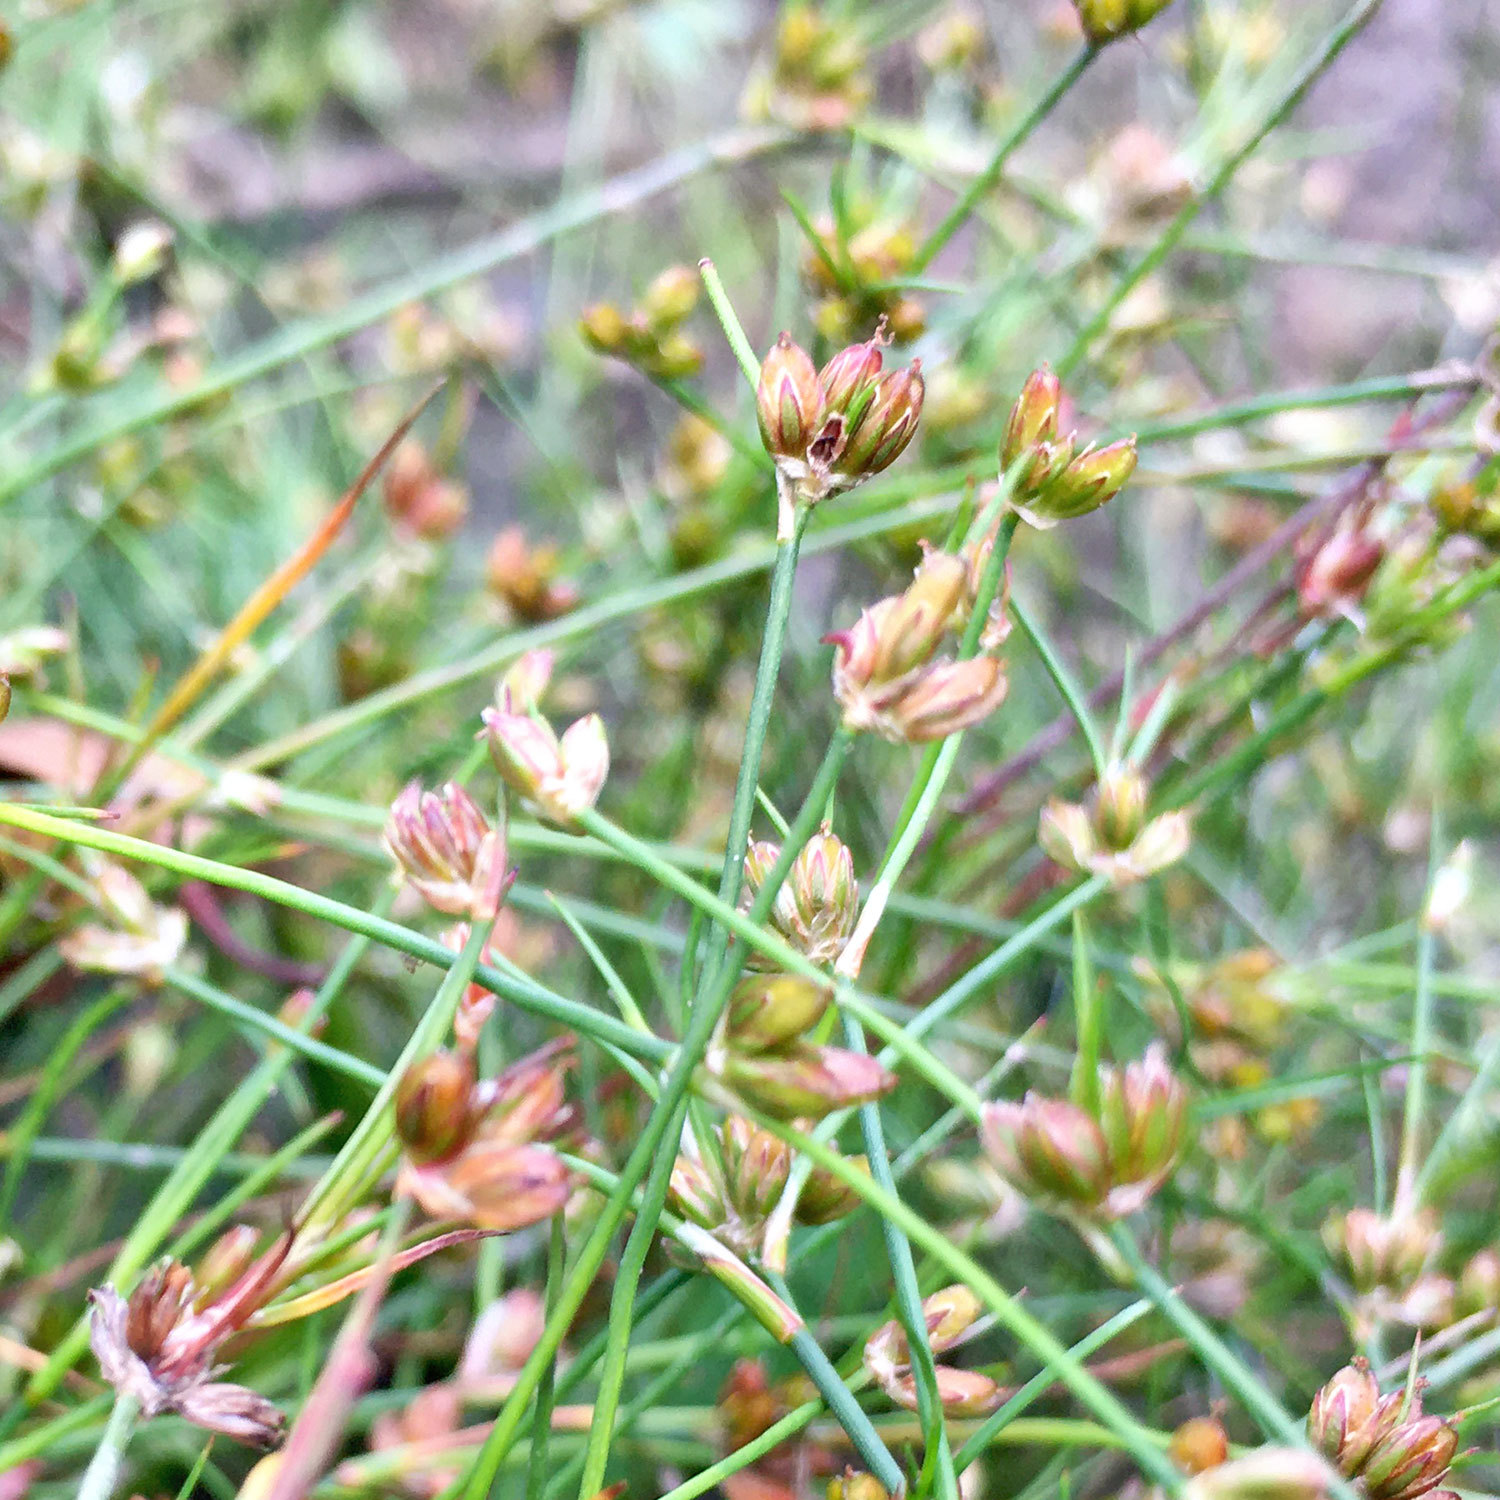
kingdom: Plantae
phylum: Tracheophyta
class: Liliopsida
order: Poales
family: Juncaceae
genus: Juncus
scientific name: Juncus bulbosus
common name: Bulbous rush
